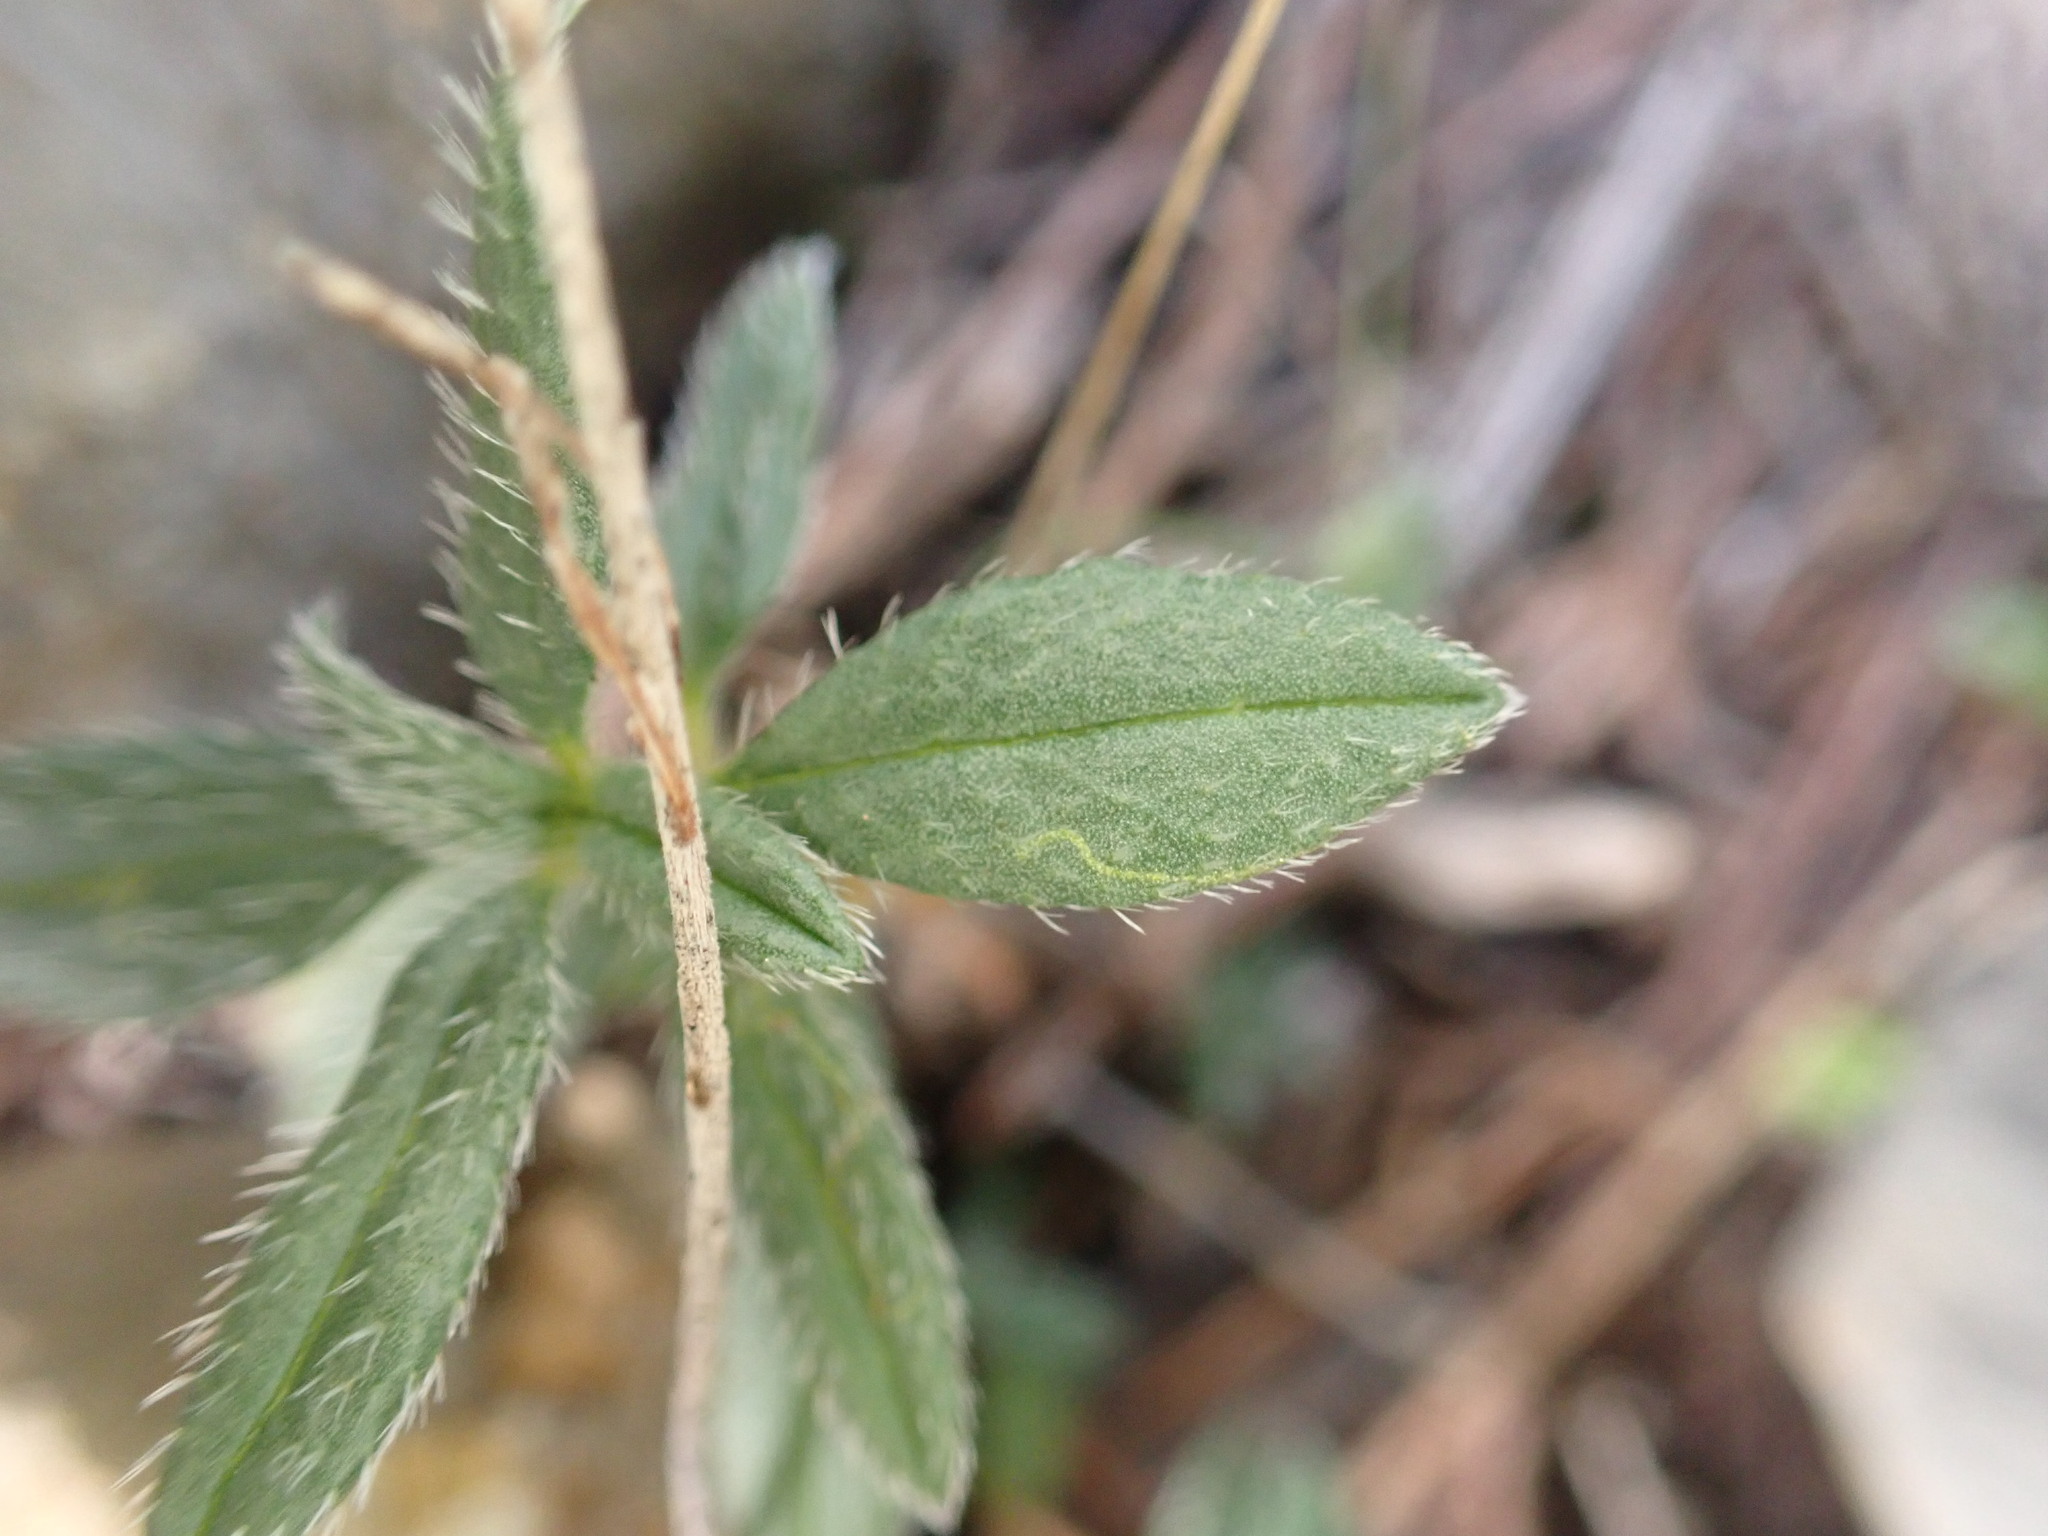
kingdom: Plantae
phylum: Tracheophyta
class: Magnoliopsida
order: Malvales
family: Cistaceae
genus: Helianthemum
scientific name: Helianthemum oelandicum
